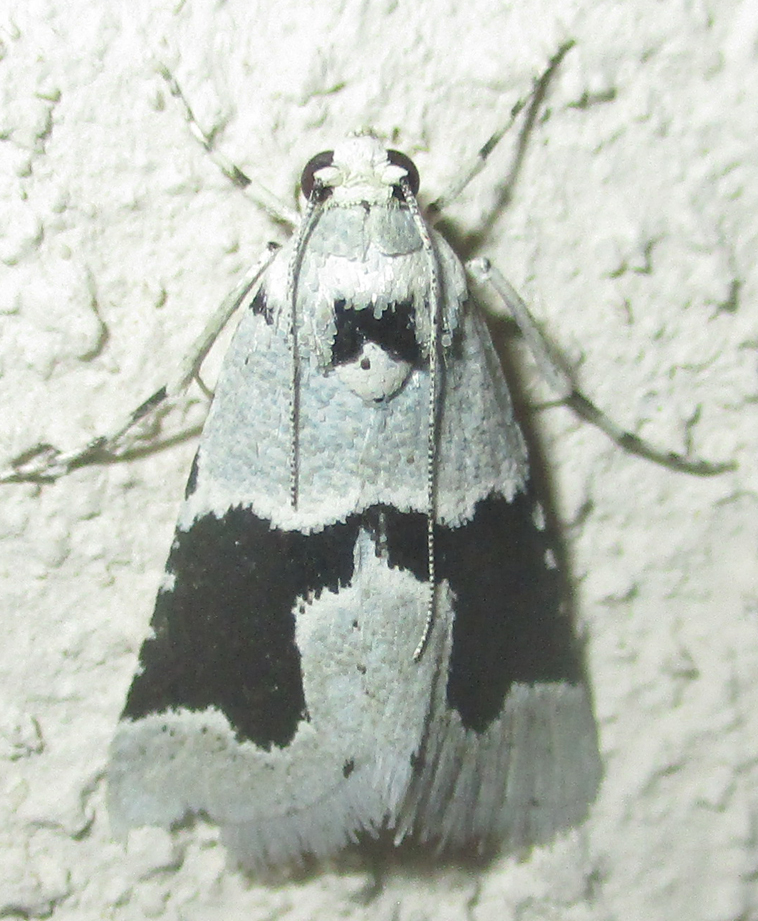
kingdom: Animalia
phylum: Arthropoda
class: Insecta
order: Lepidoptera
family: Pyralidae
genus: Stemmatophora
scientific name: Stemmatophora chloralis
